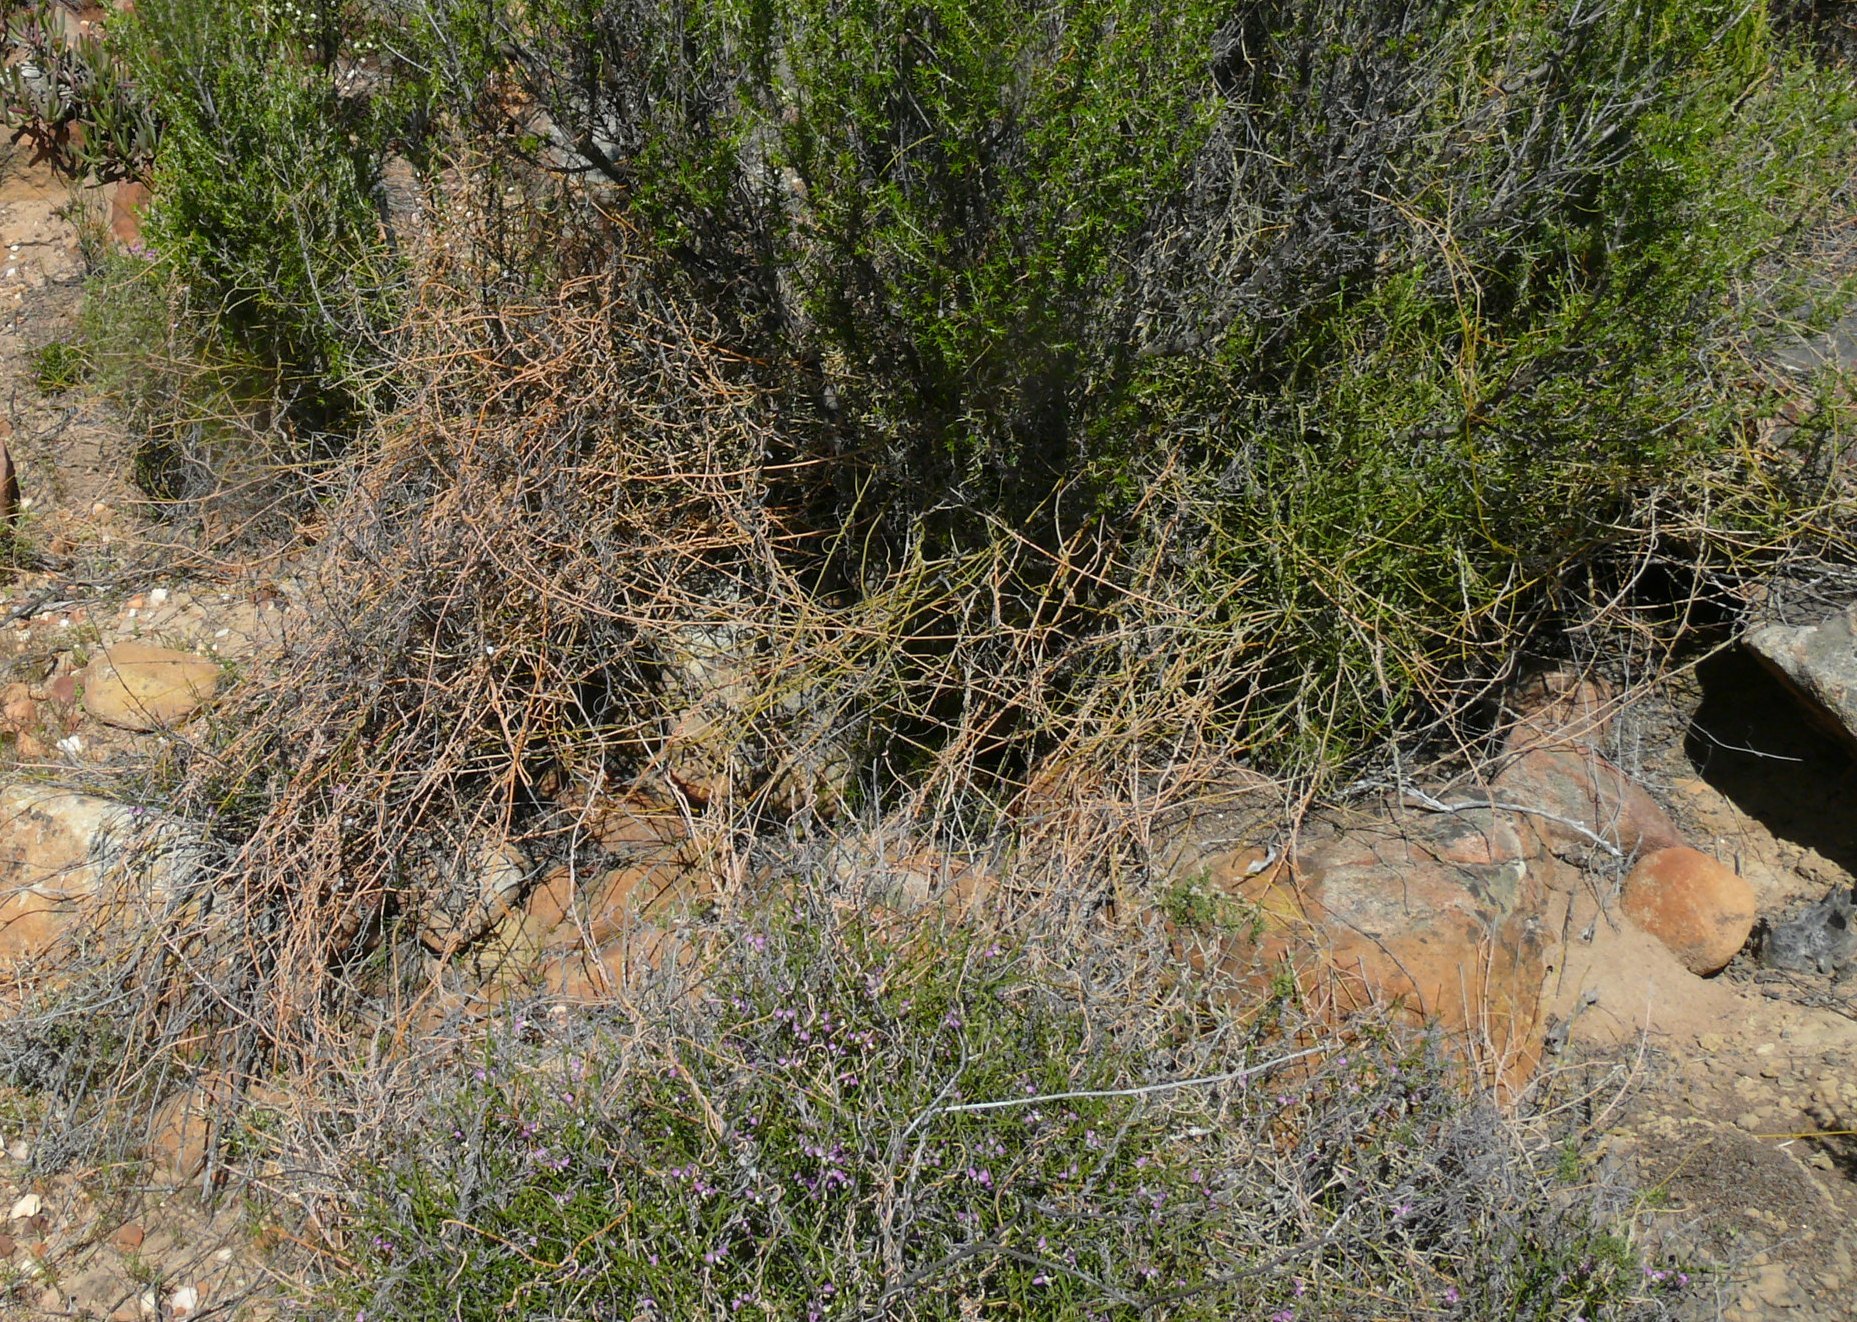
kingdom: Plantae
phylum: Tracheophyta
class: Magnoliopsida
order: Laurales
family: Lauraceae
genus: Cassytha
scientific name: Cassytha ciliolata
